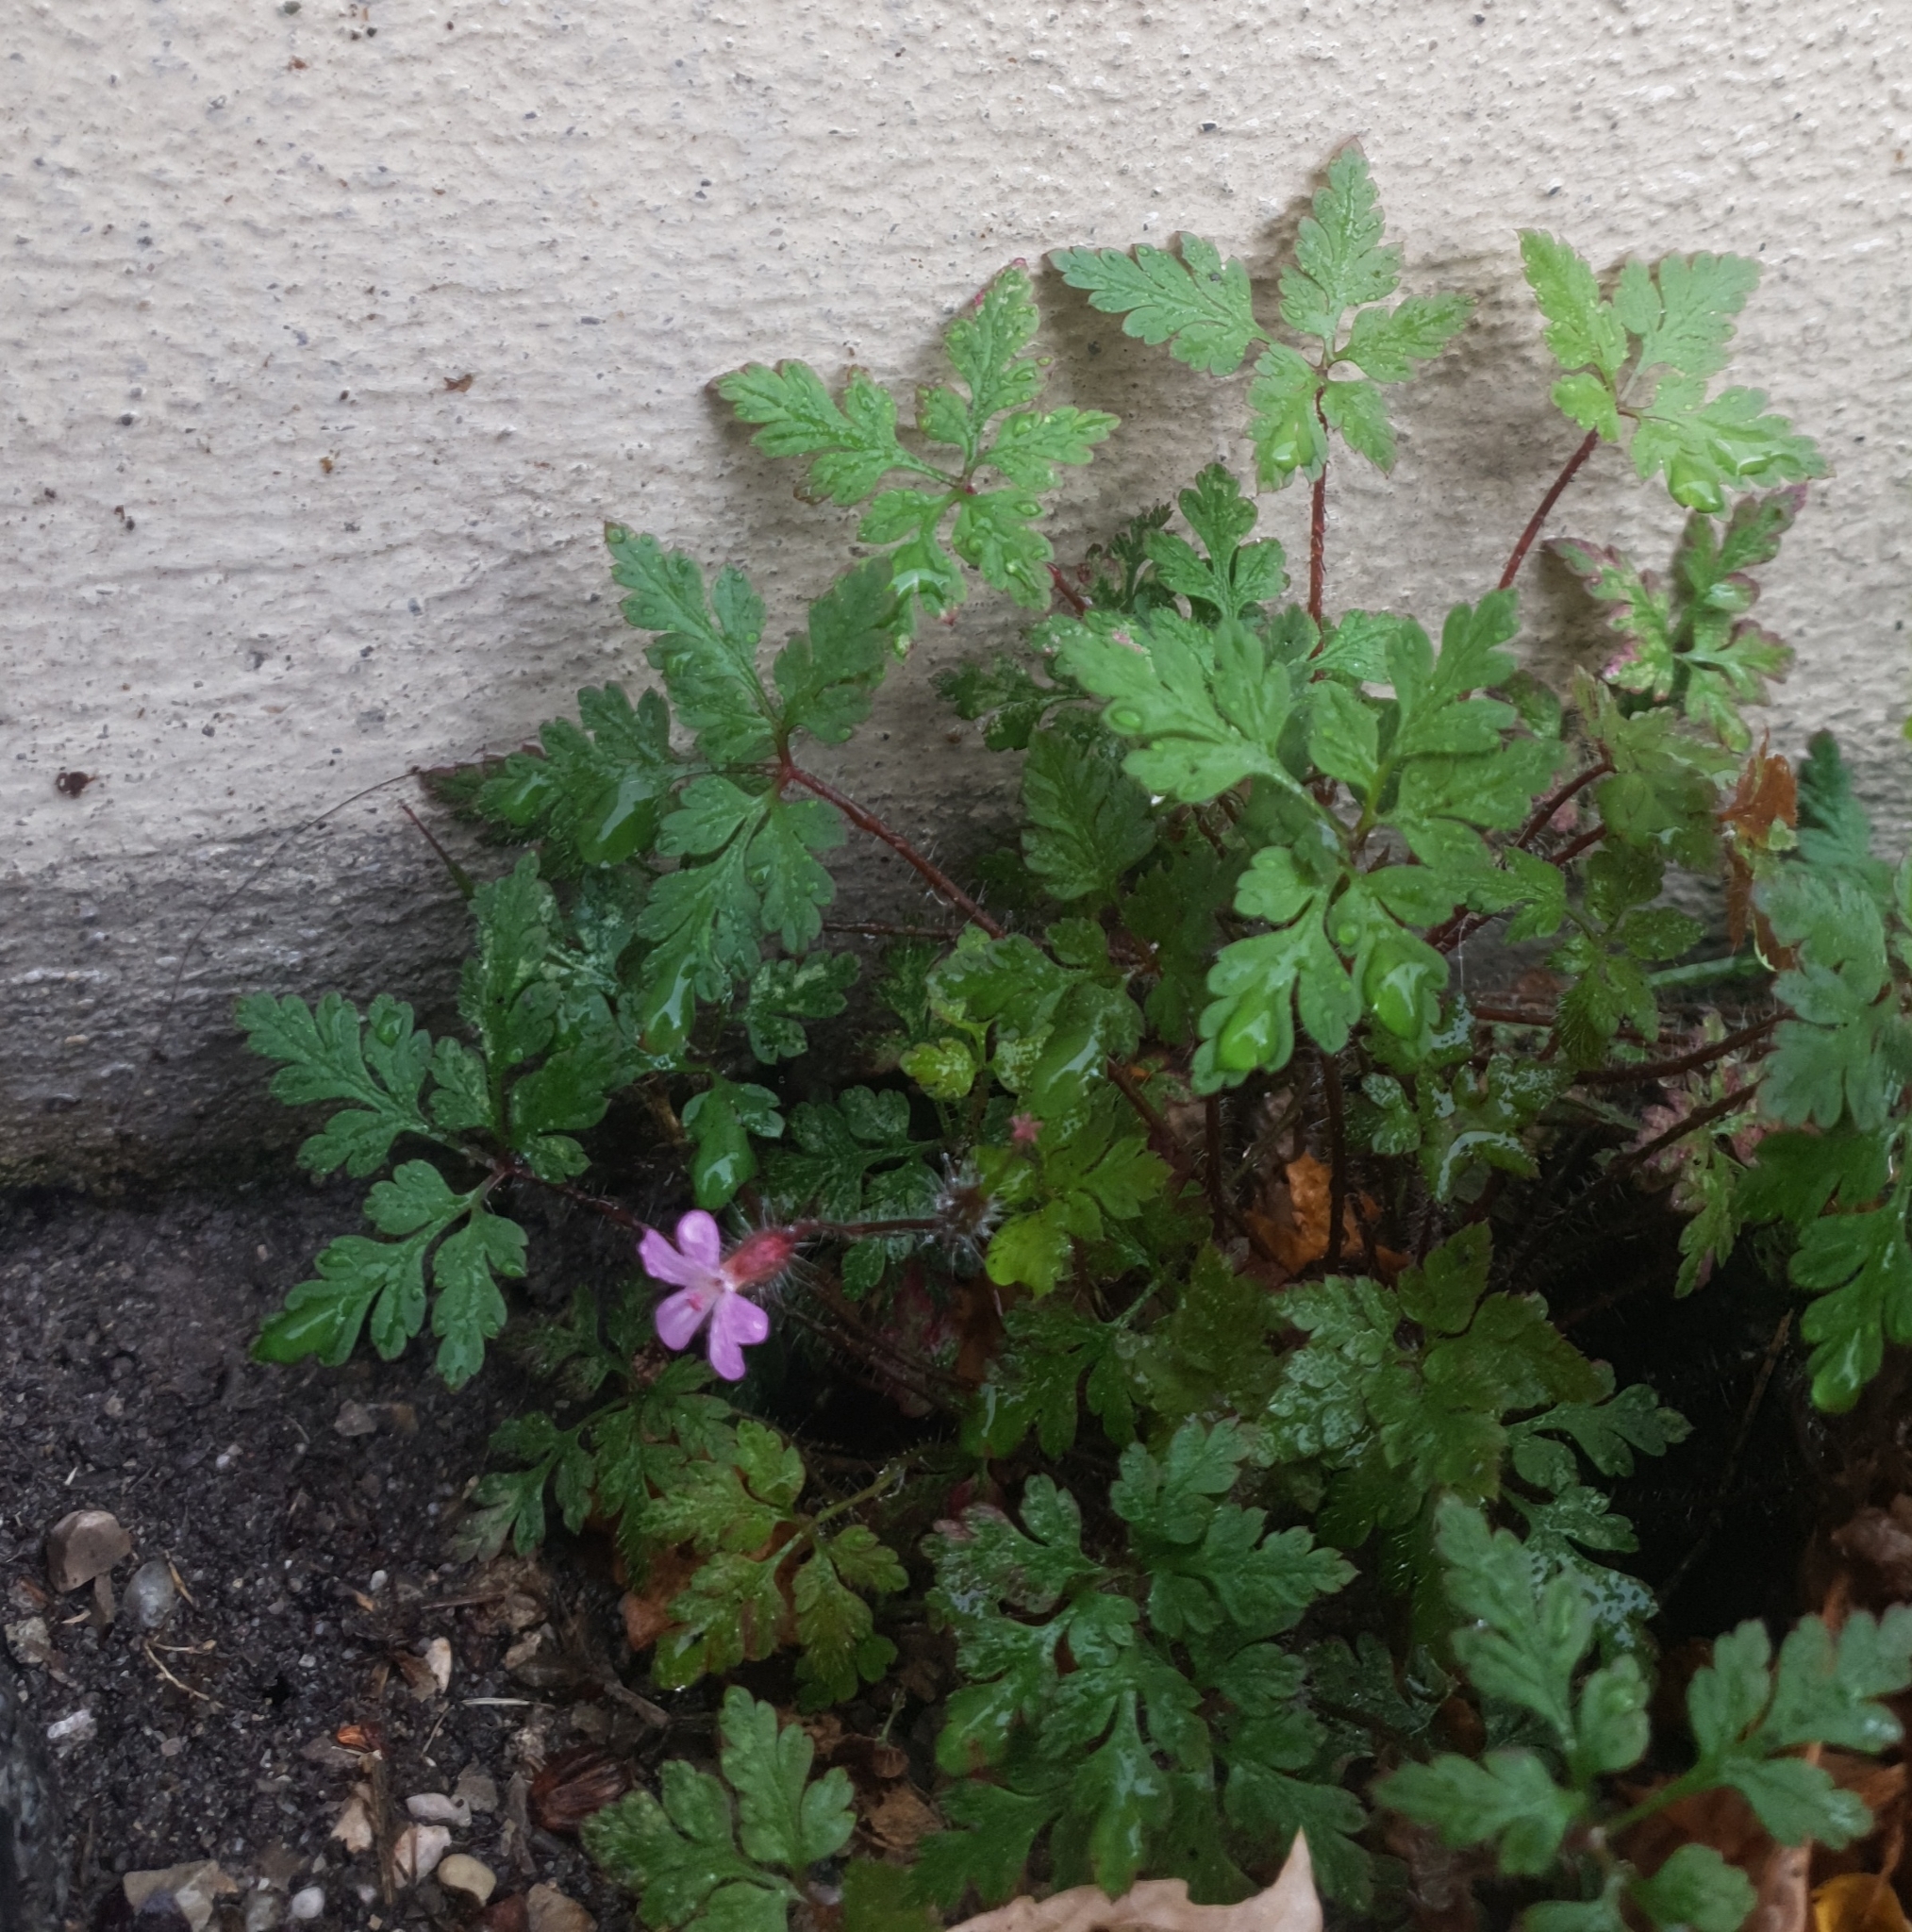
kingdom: Plantae
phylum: Tracheophyta
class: Magnoliopsida
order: Geraniales
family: Geraniaceae
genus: Geranium
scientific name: Geranium robertianum
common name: Herb-robert
